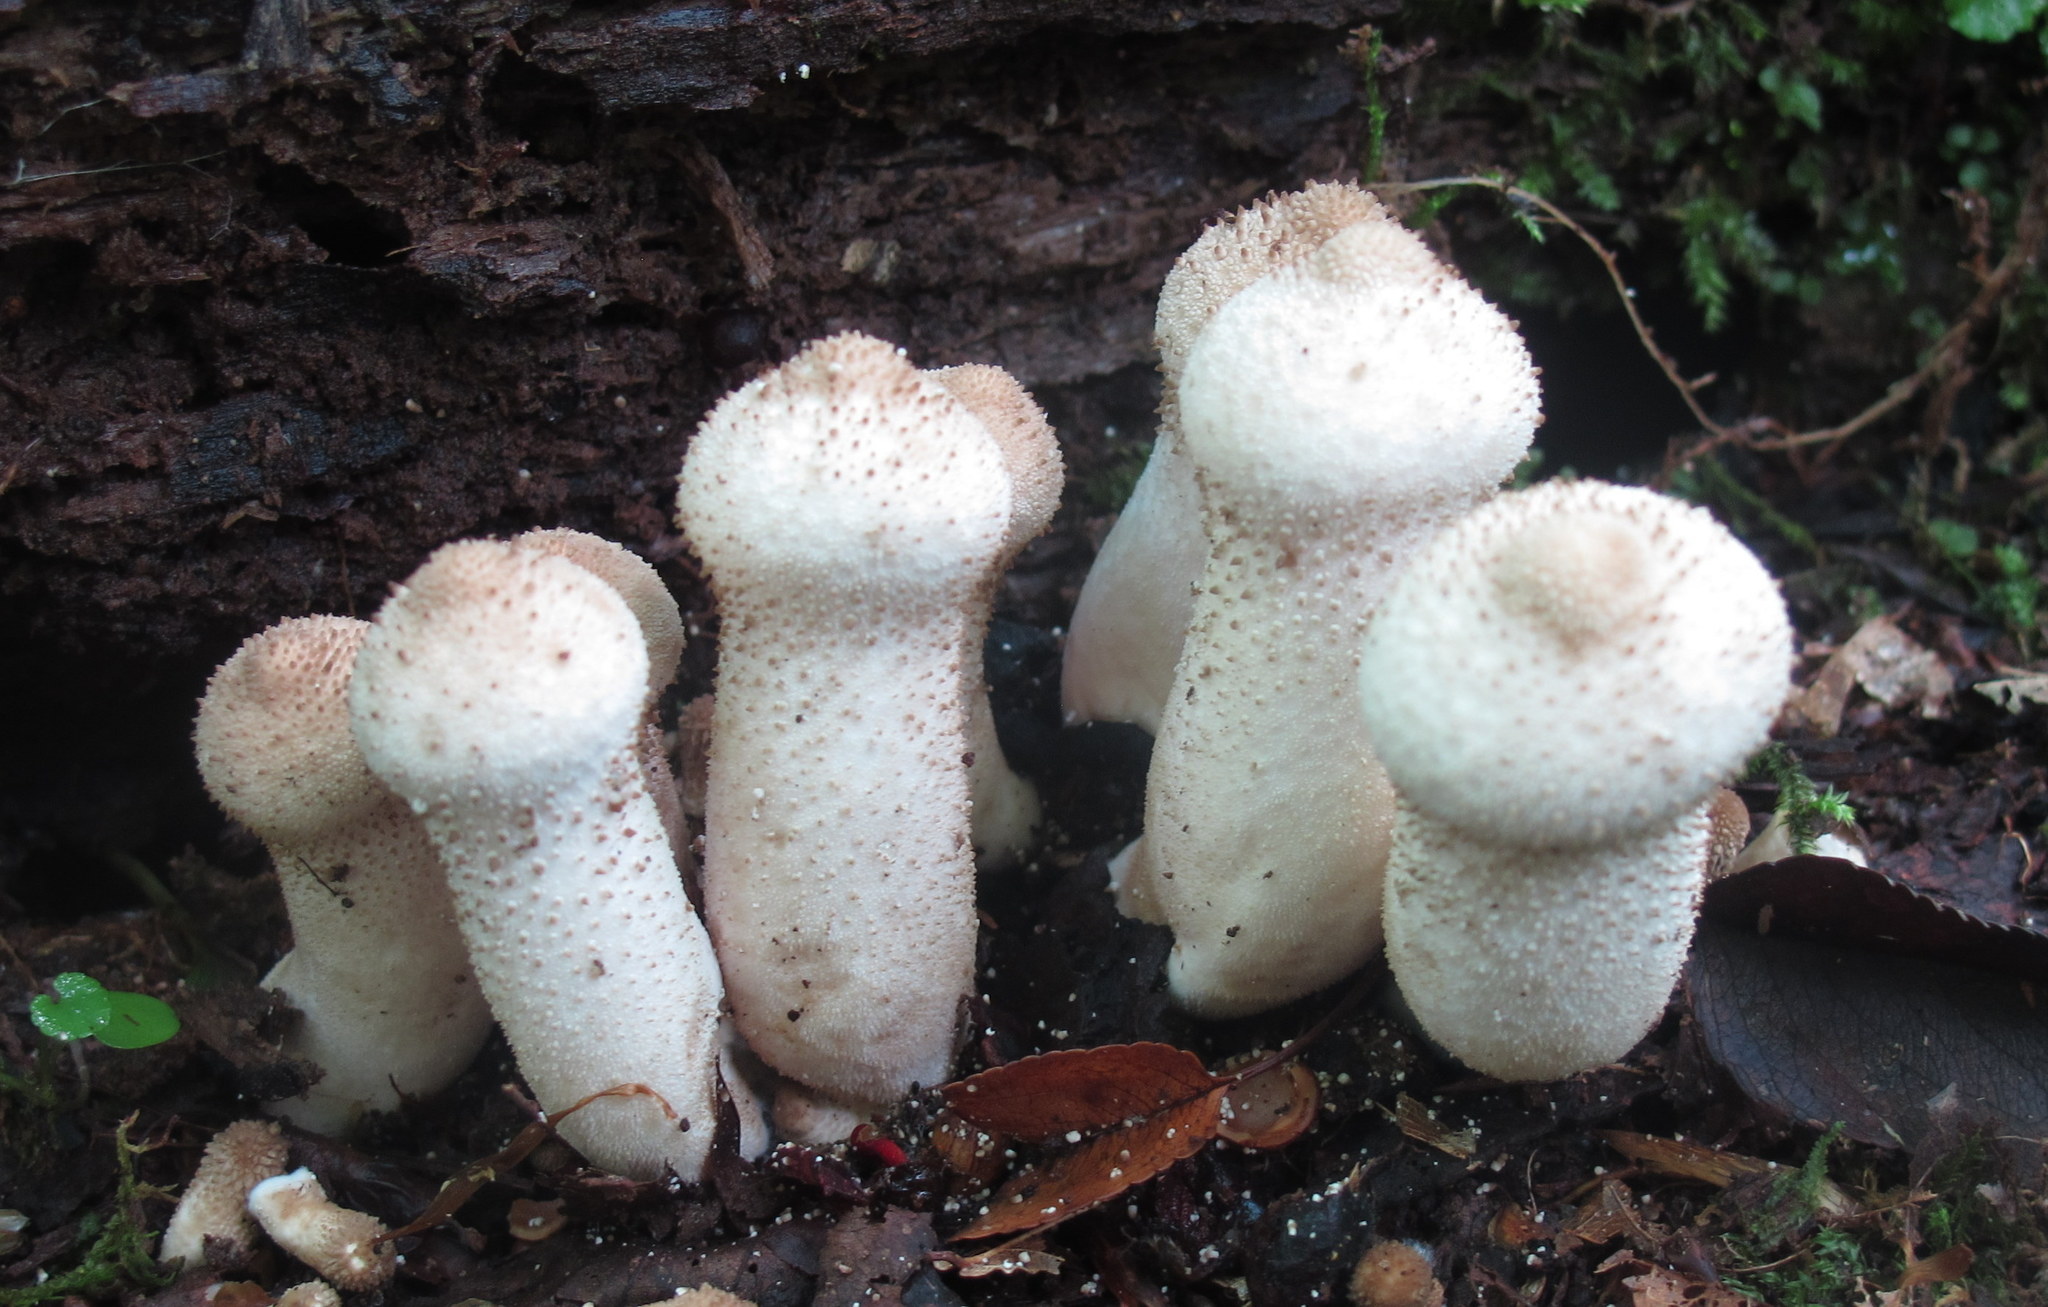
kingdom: Fungi
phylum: Basidiomycota
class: Agaricomycetes
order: Agaricales
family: Lycoperdaceae
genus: Lycoperdon
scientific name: Lycoperdon excipuliforme
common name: Pestle puffball
